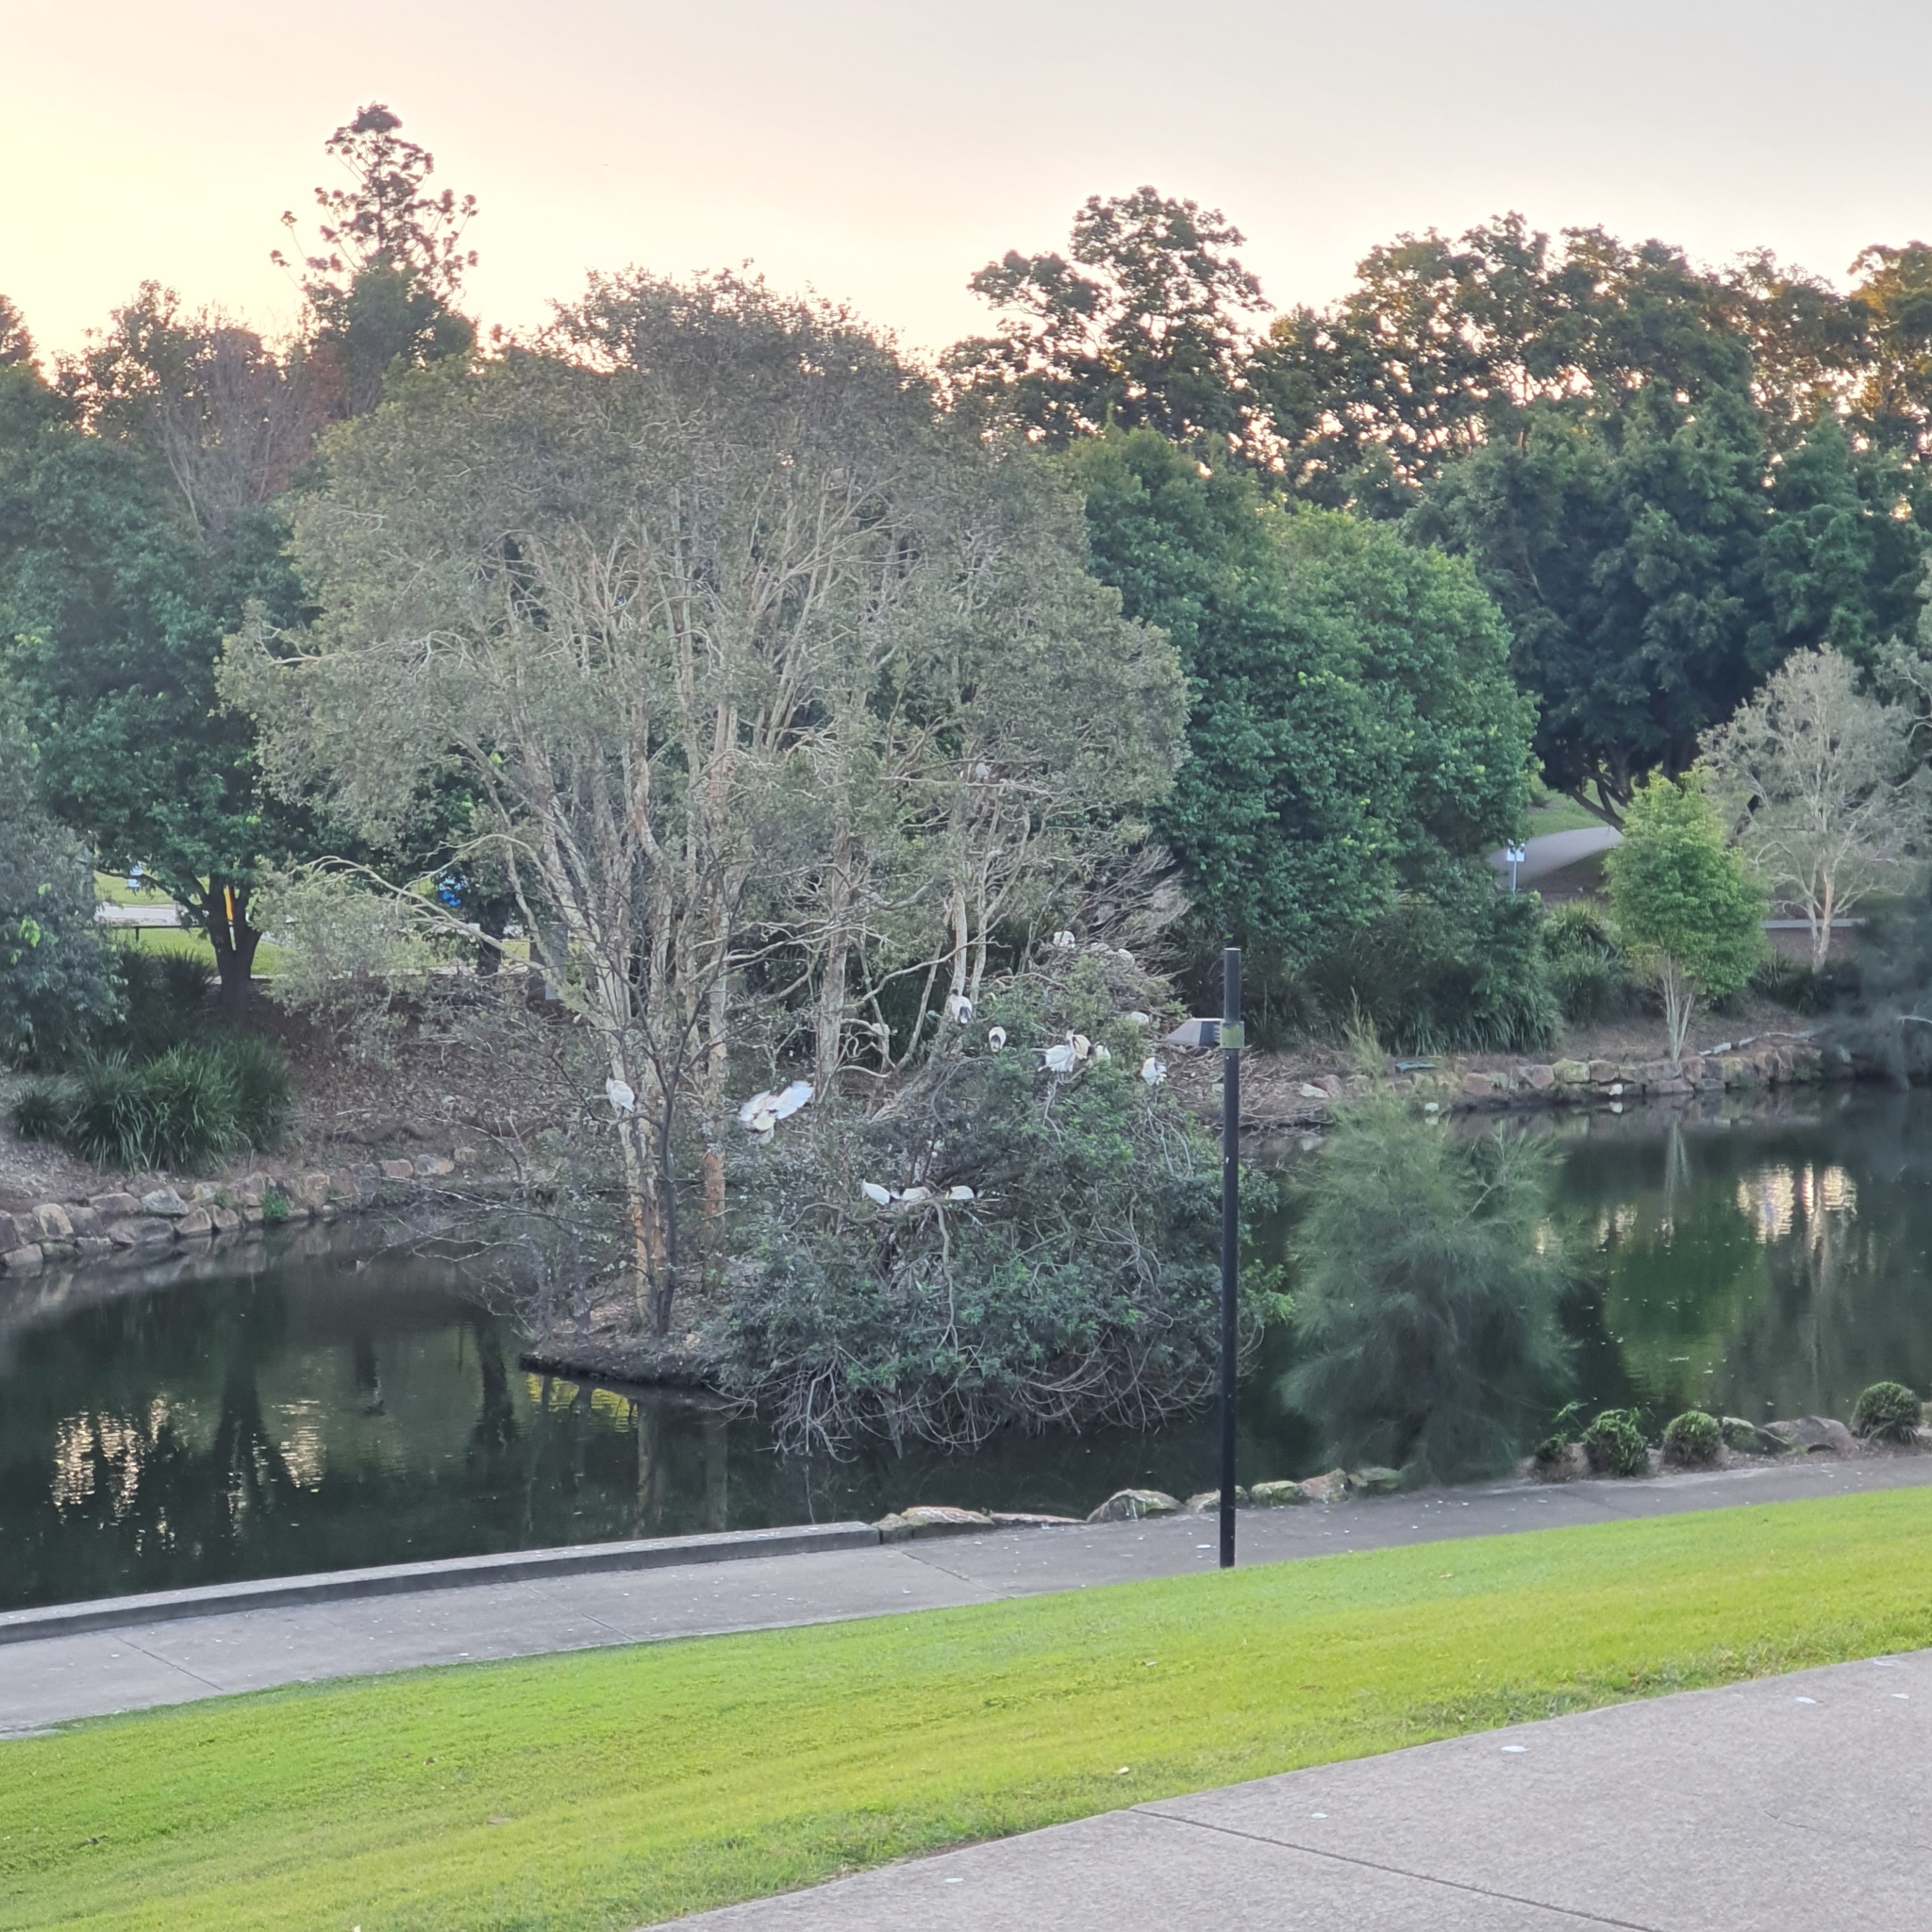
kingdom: Animalia
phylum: Chordata
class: Aves
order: Pelecaniformes
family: Threskiornithidae
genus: Threskiornis
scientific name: Threskiornis molucca
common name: Australian white ibis
